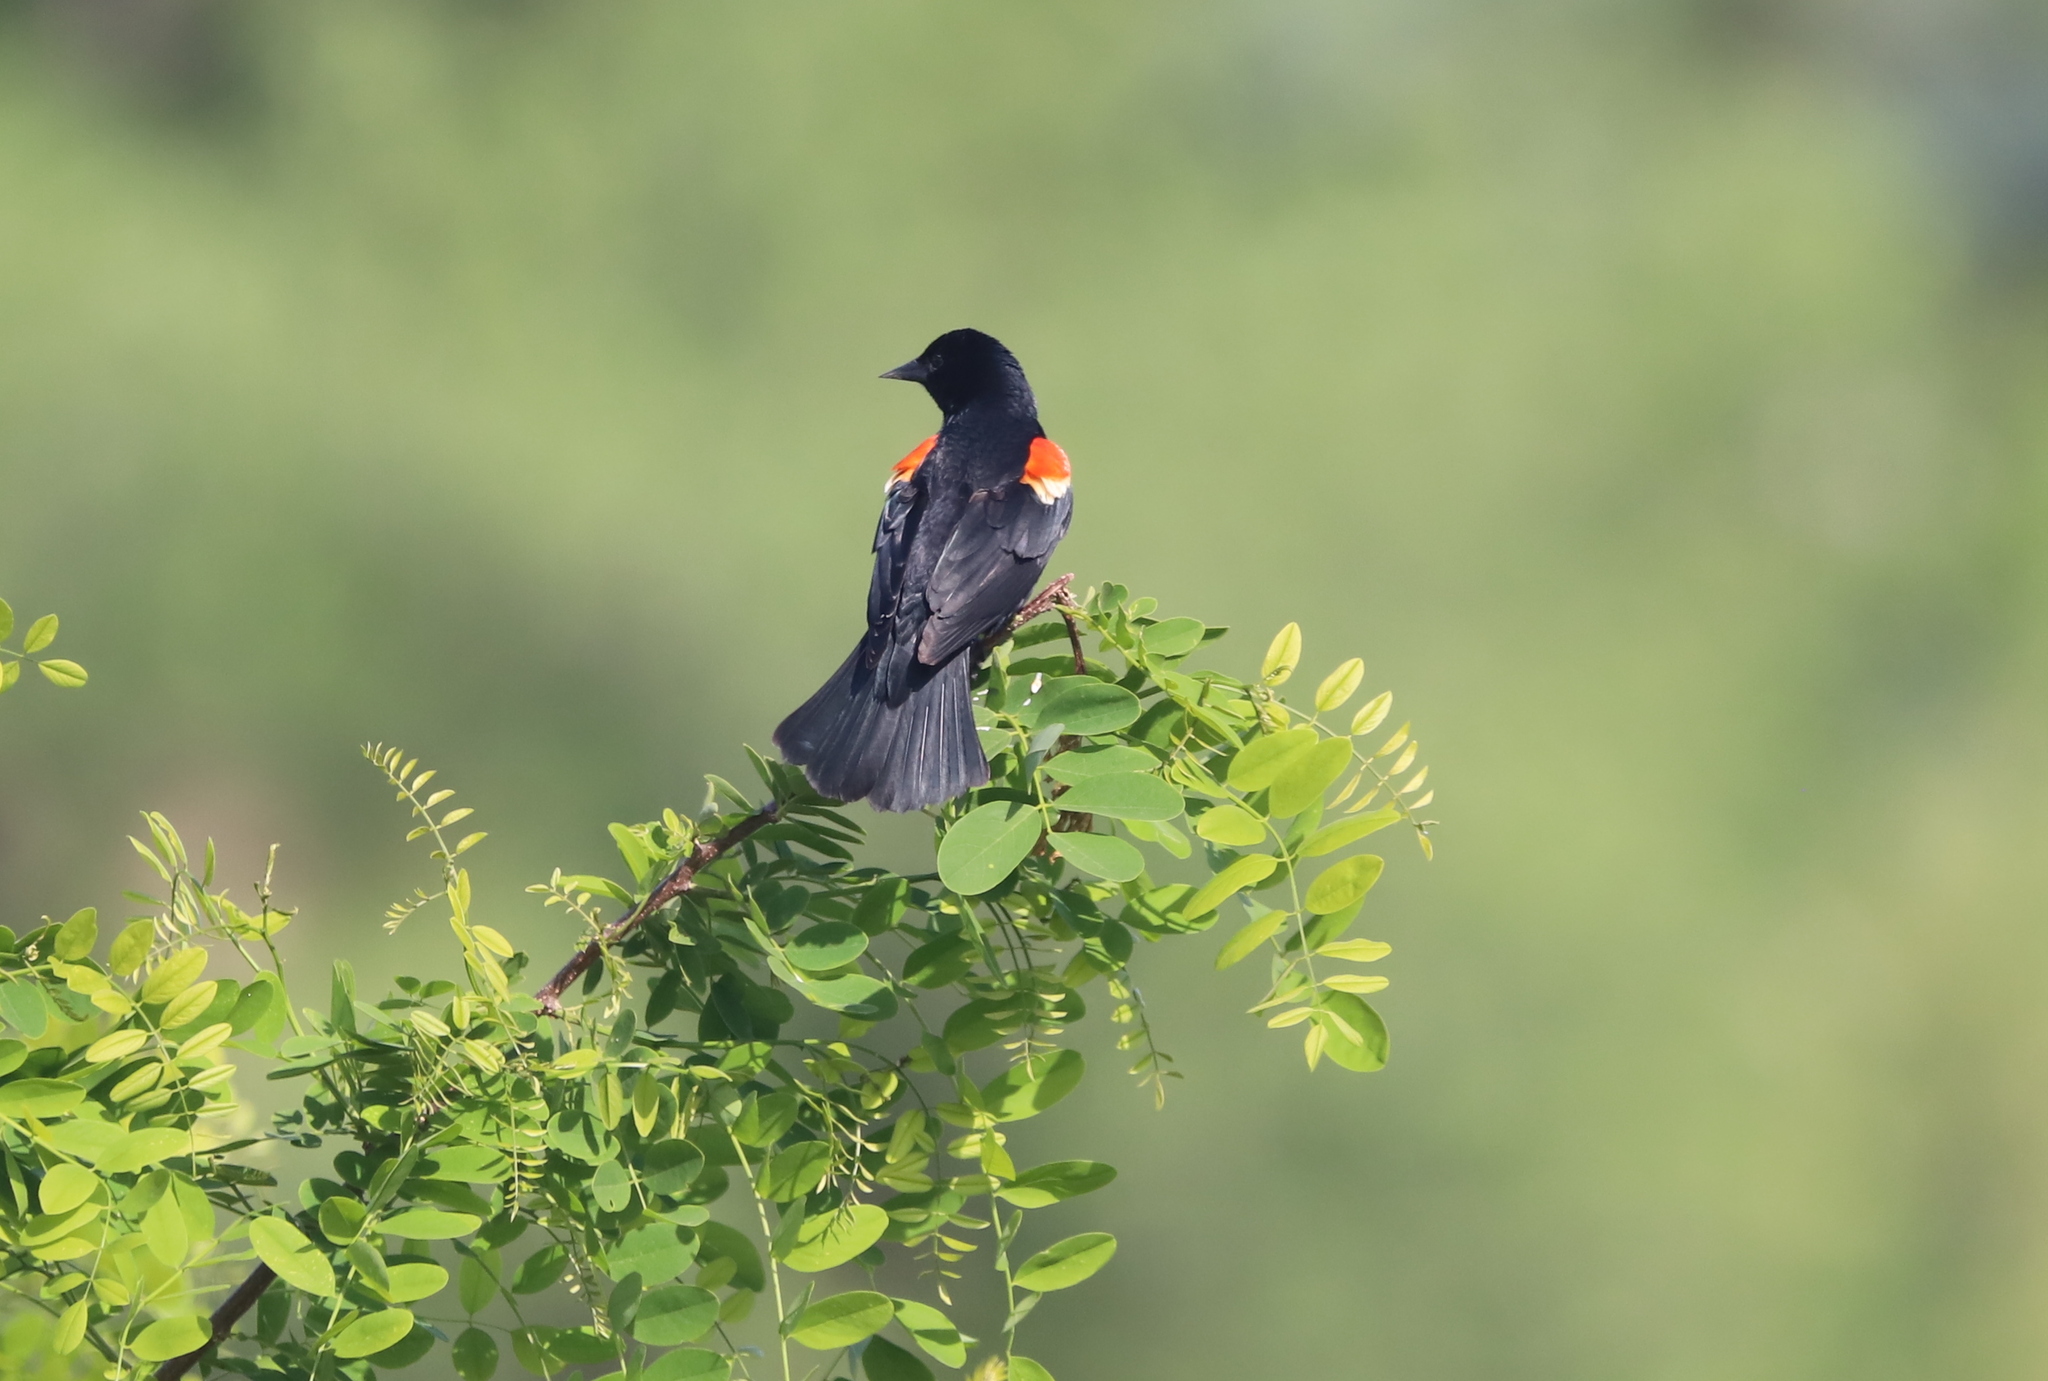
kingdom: Animalia
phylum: Chordata
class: Aves
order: Passeriformes
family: Icteridae
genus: Agelaius
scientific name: Agelaius phoeniceus
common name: Red-winged blackbird
